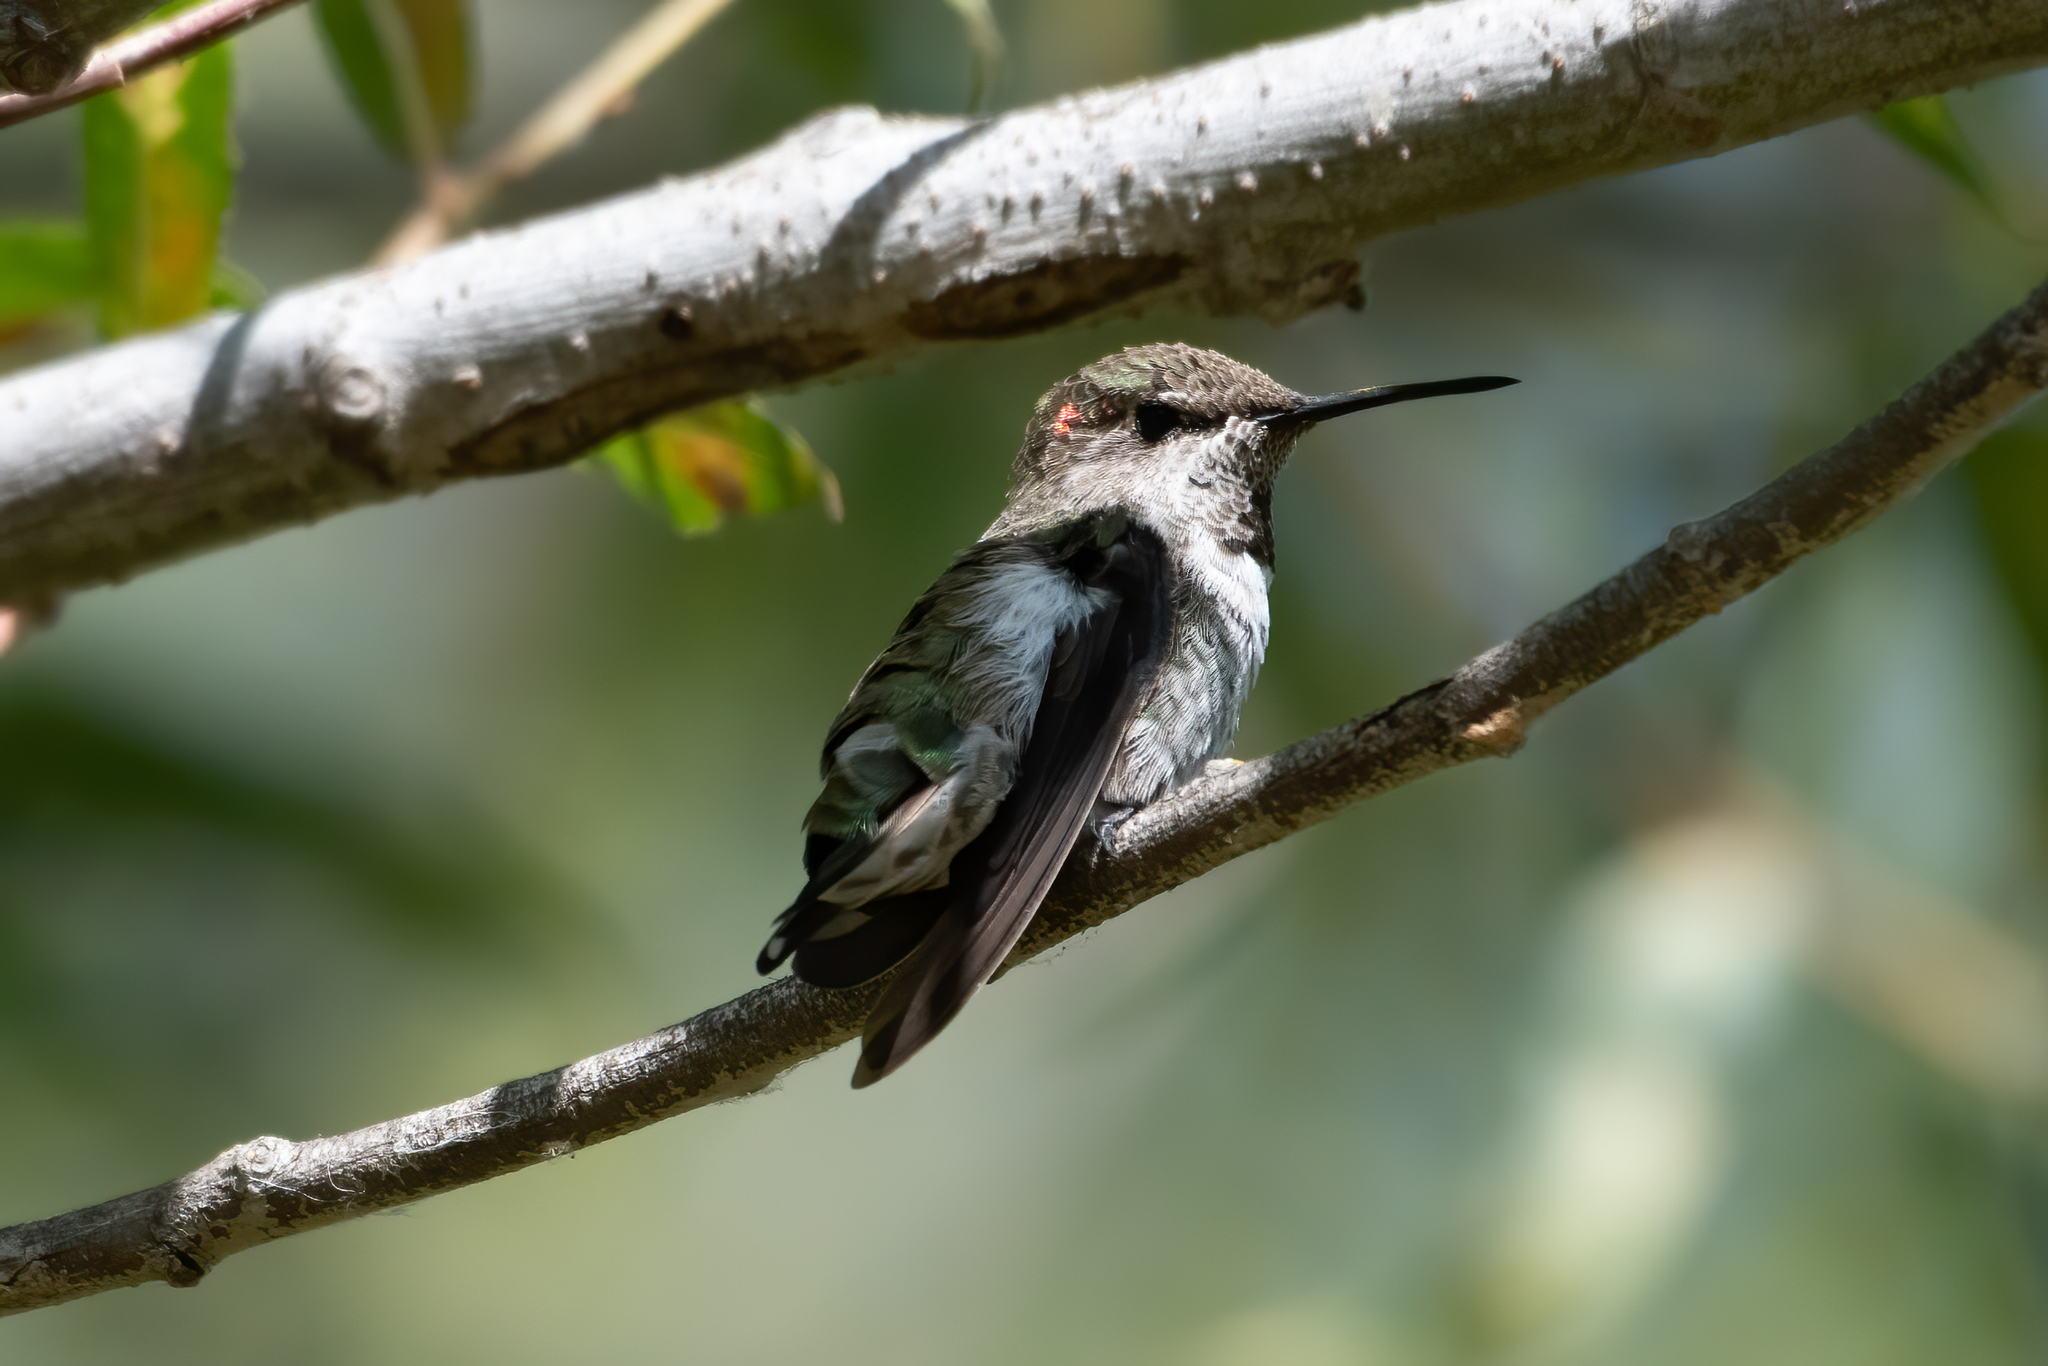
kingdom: Animalia
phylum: Chordata
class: Aves
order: Apodiformes
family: Trochilidae
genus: Calypte
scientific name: Calypte anna
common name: Anna's hummingbird
